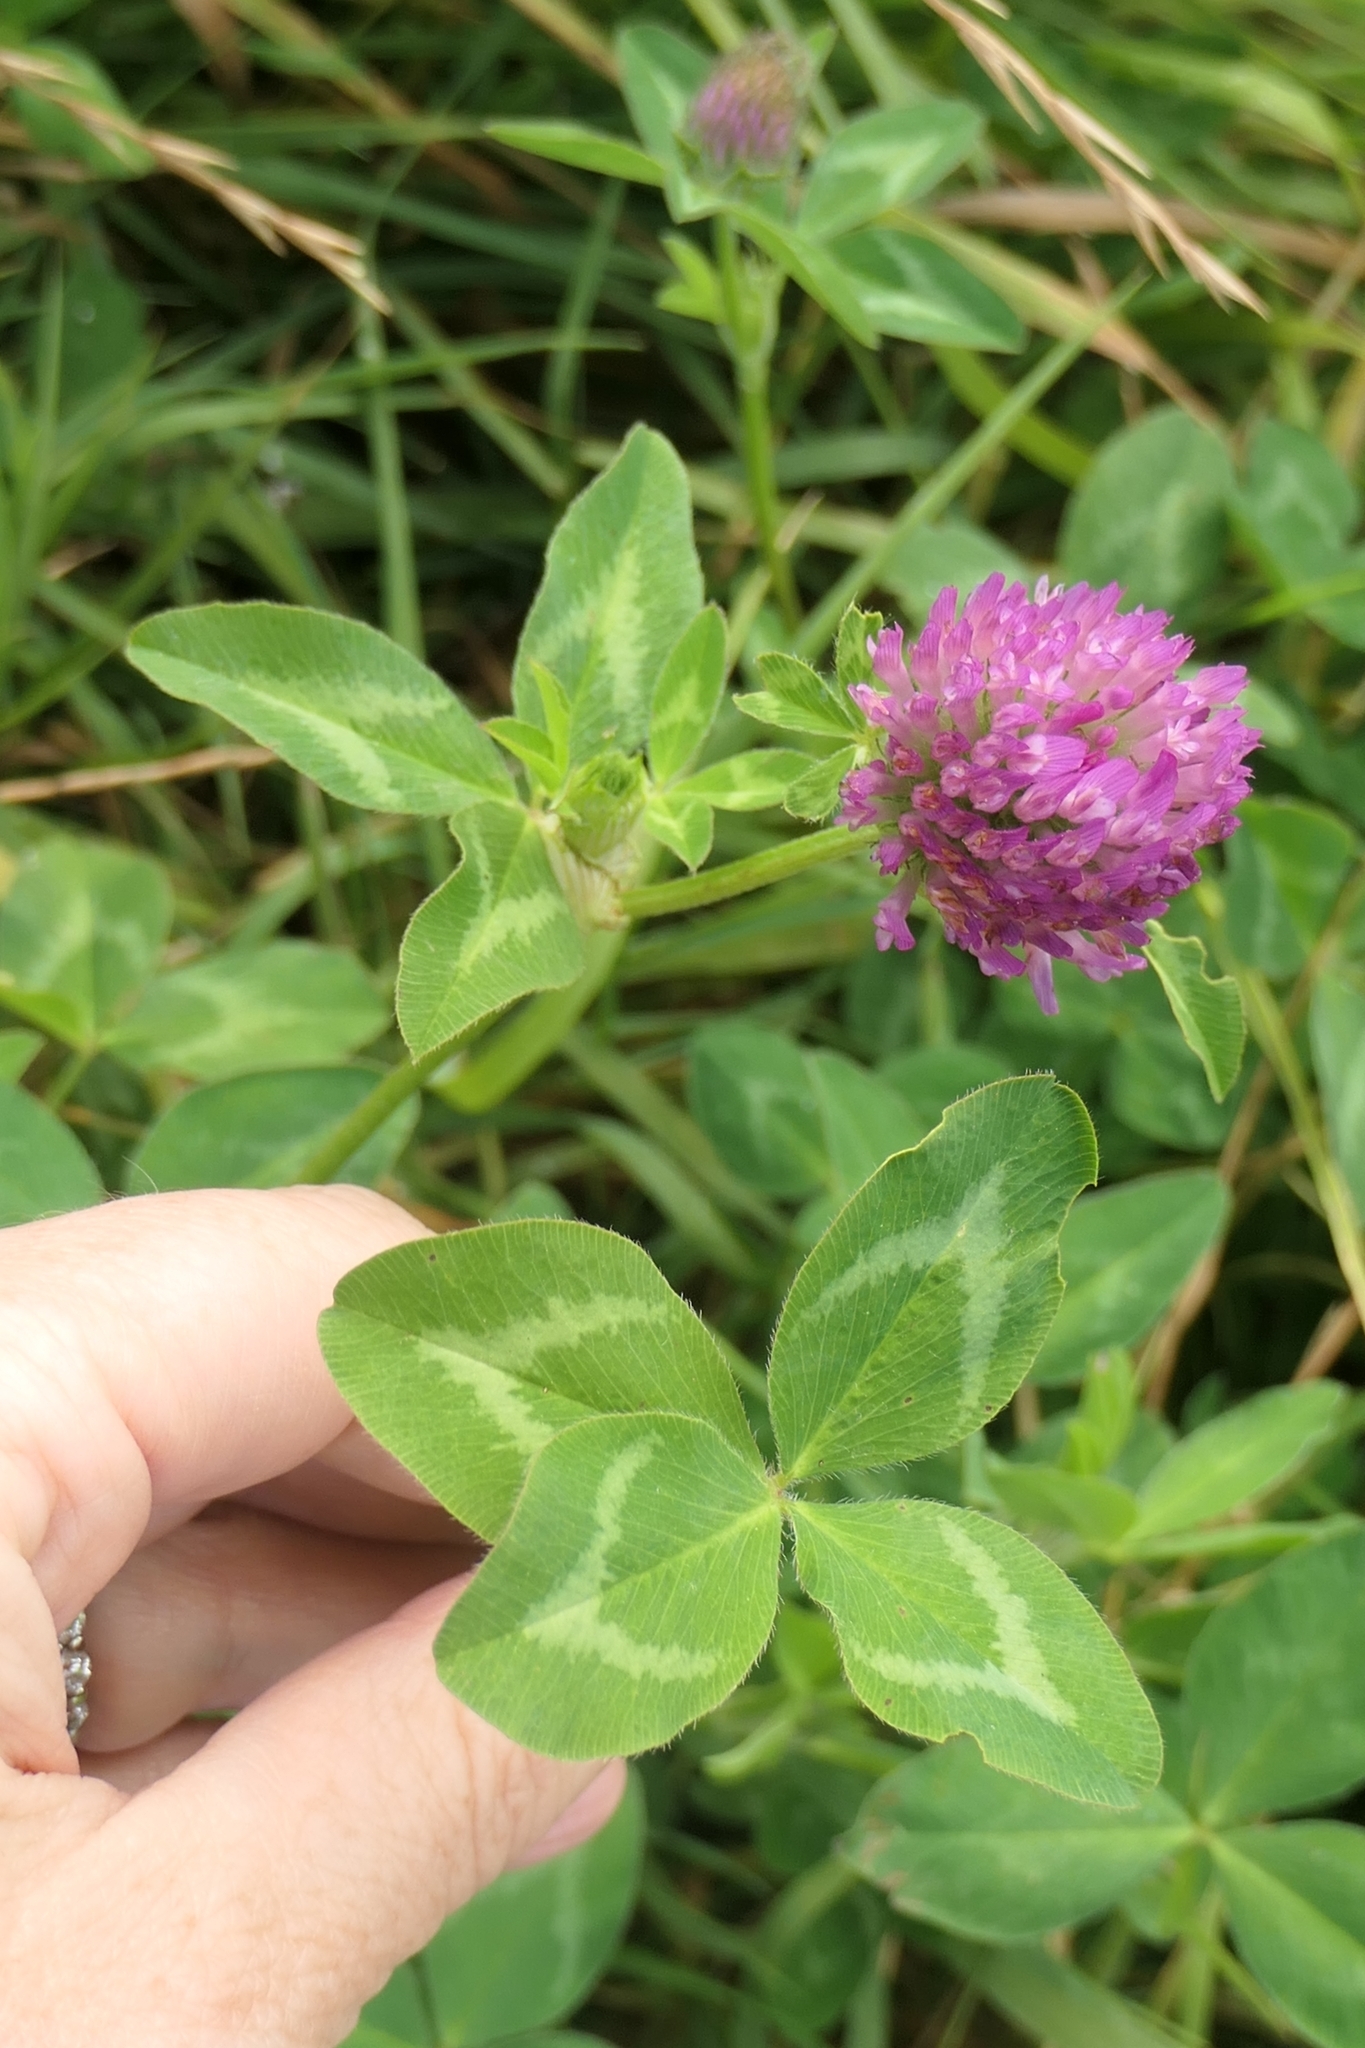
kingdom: Plantae
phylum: Tracheophyta
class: Magnoliopsida
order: Fabales
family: Fabaceae
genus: Trifolium
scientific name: Trifolium pratense
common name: Red clover
